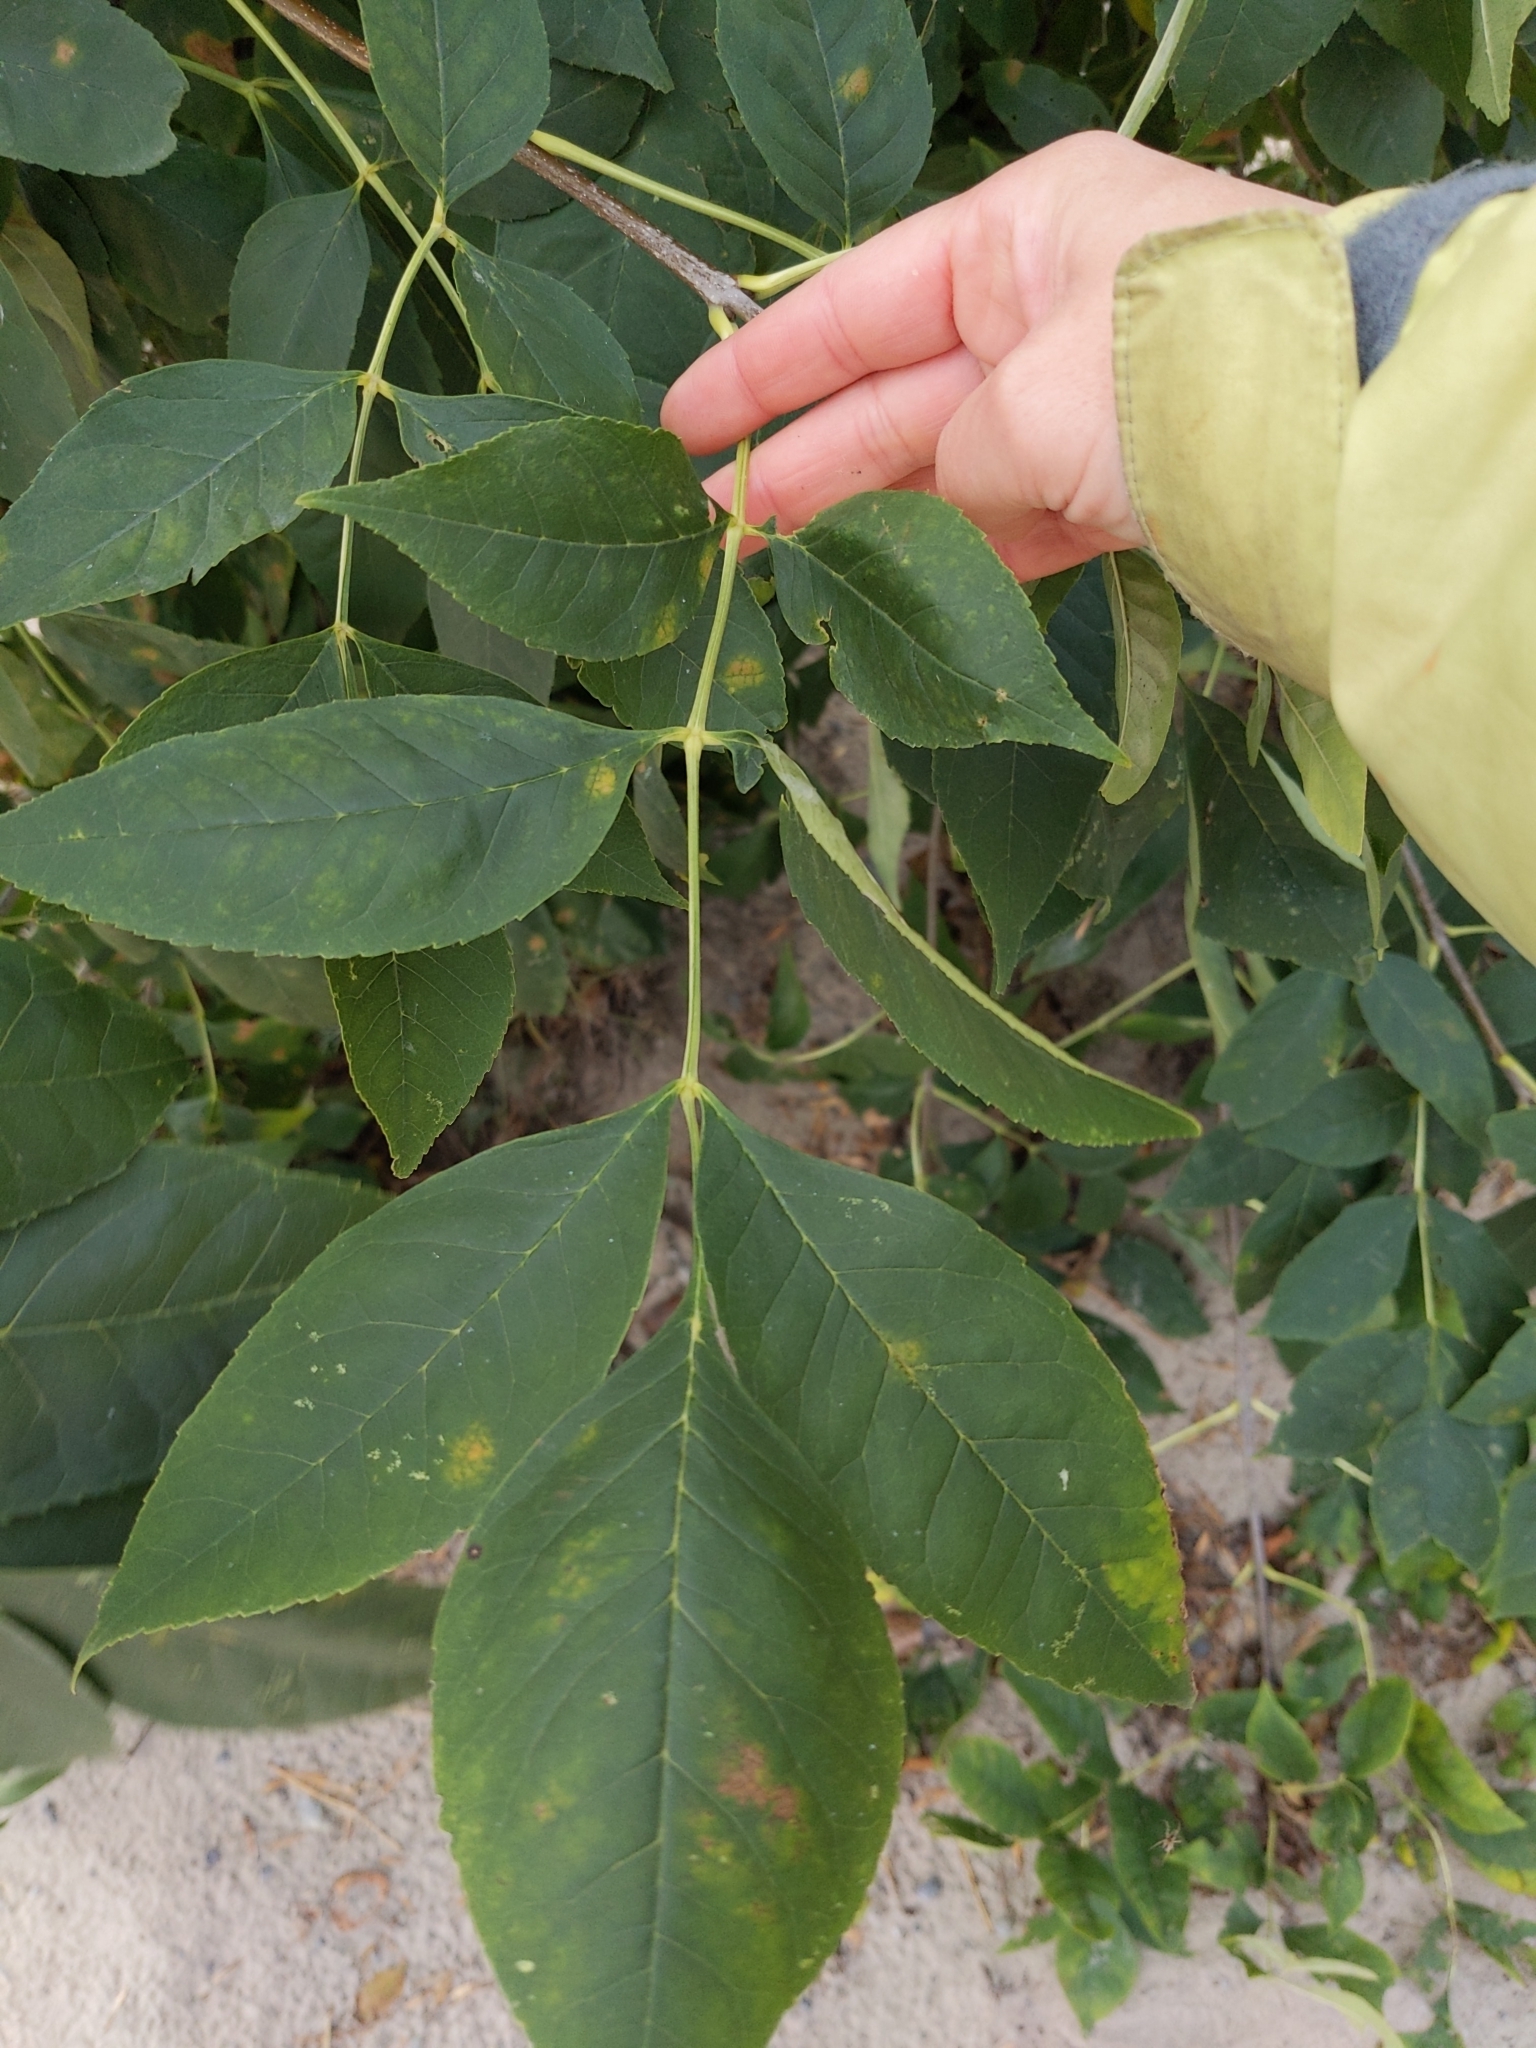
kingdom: Plantae
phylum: Tracheophyta
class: Magnoliopsida
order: Lamiales
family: Oleaceae
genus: Fraxinus
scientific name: Fraxinus pennsylvanica
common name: Green ash
